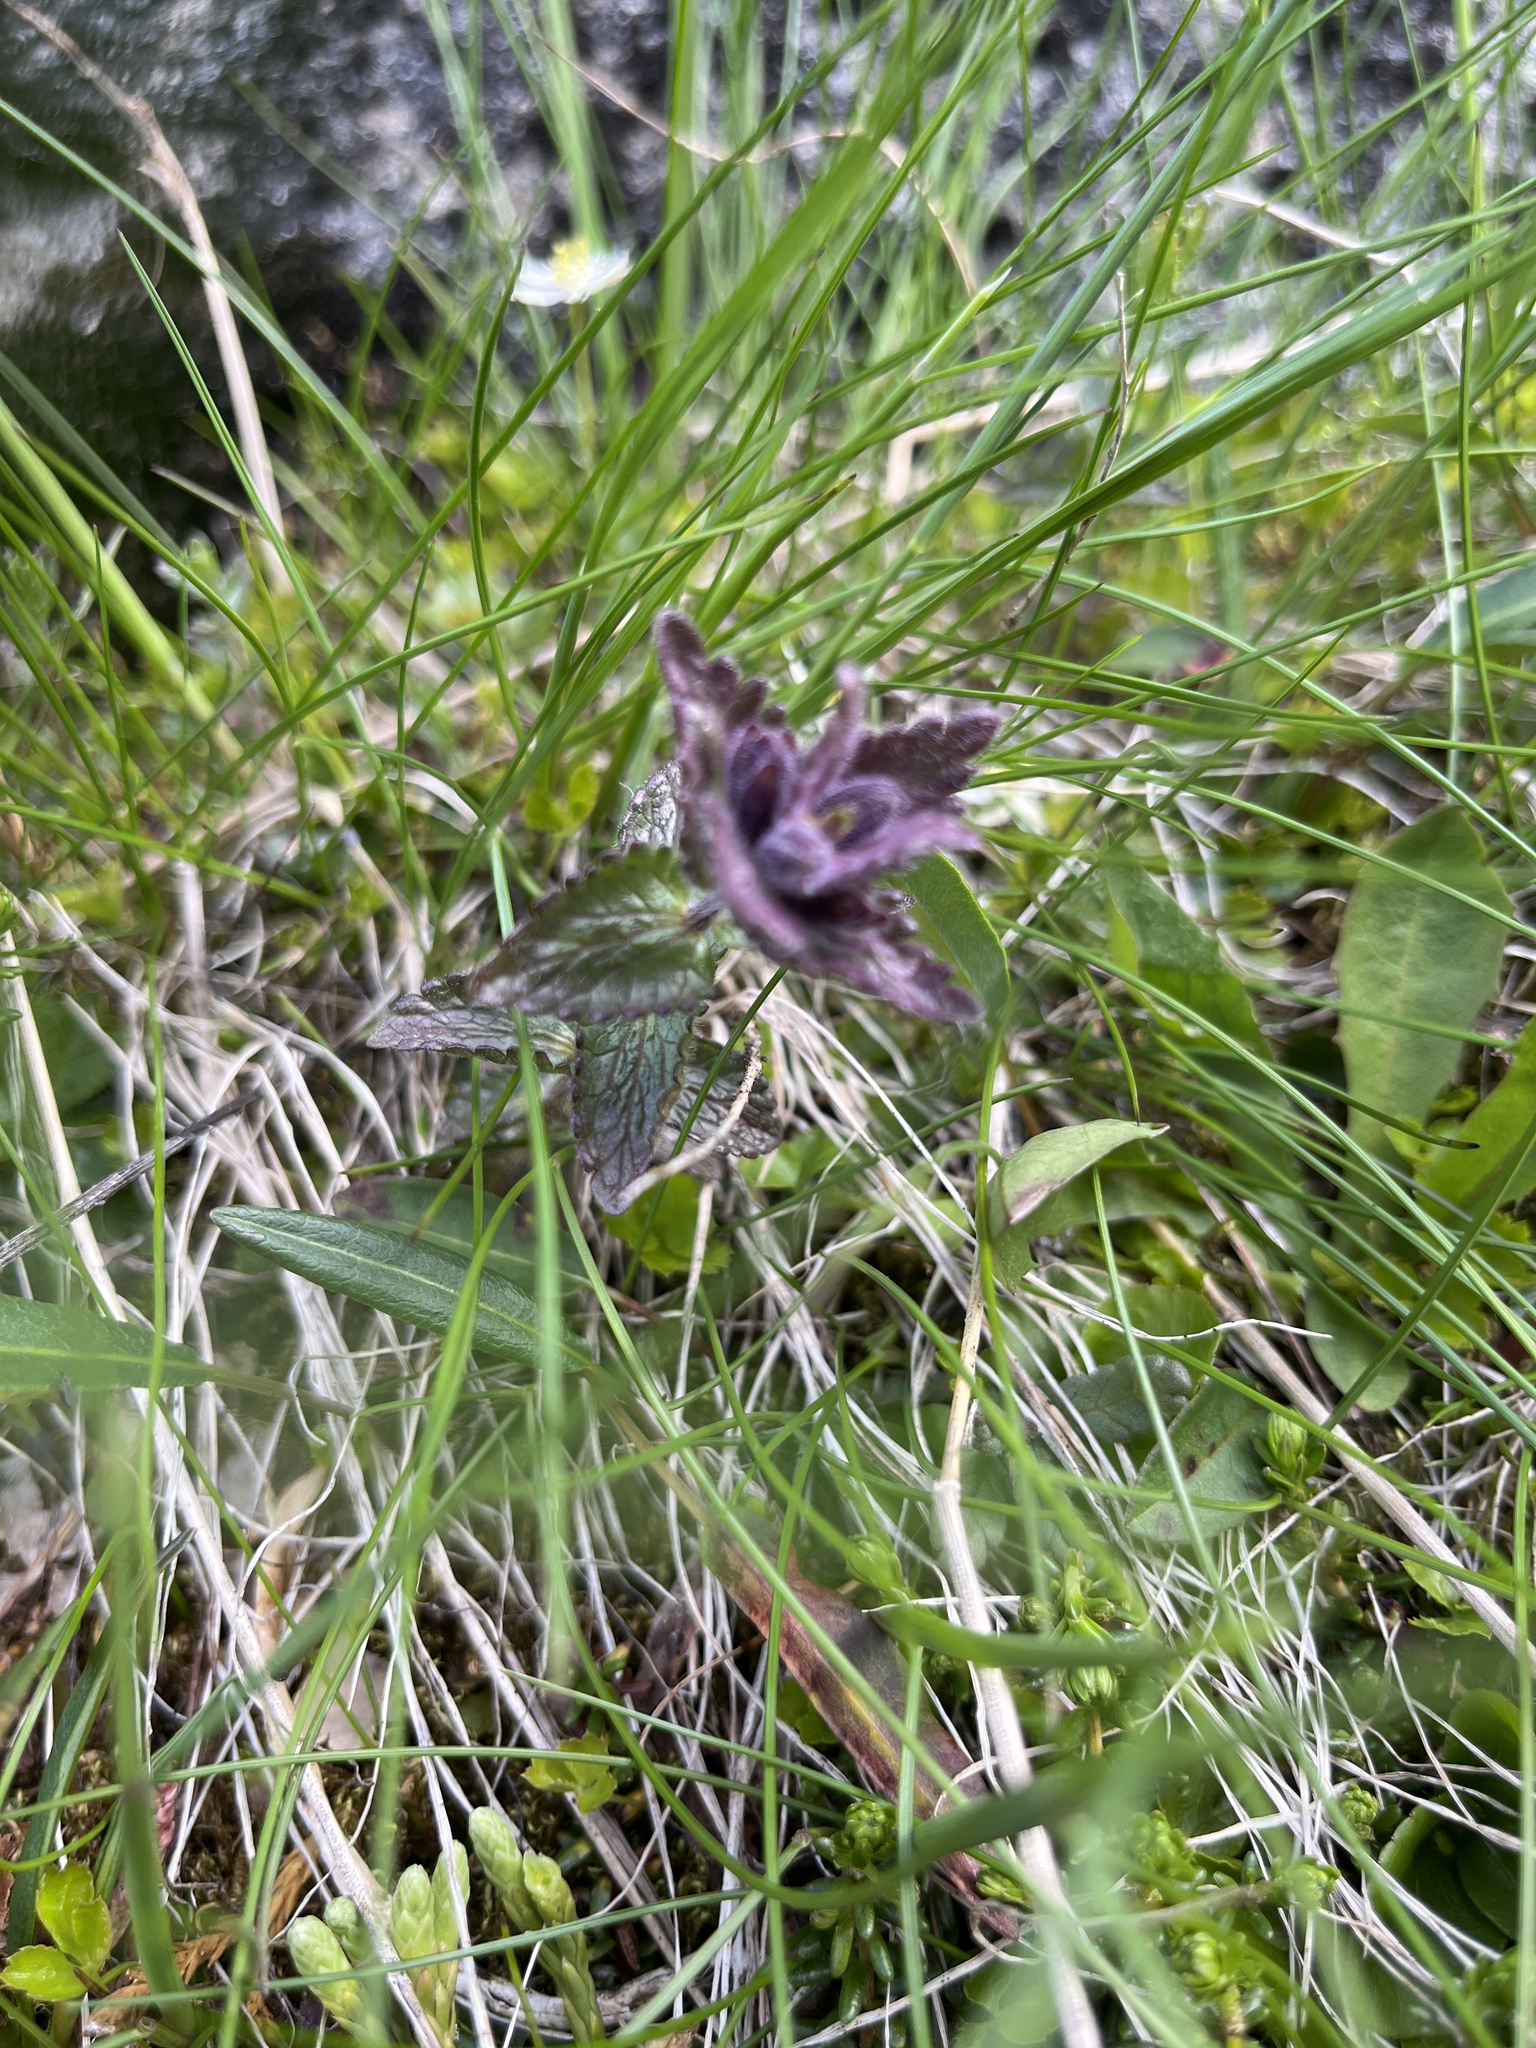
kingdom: Plantae
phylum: Tracheophyta
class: Magnoliopsida
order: Lamiales
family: Orobanchaceae
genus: Bartsia
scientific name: Bartsia alpina
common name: Alpine bartsia
